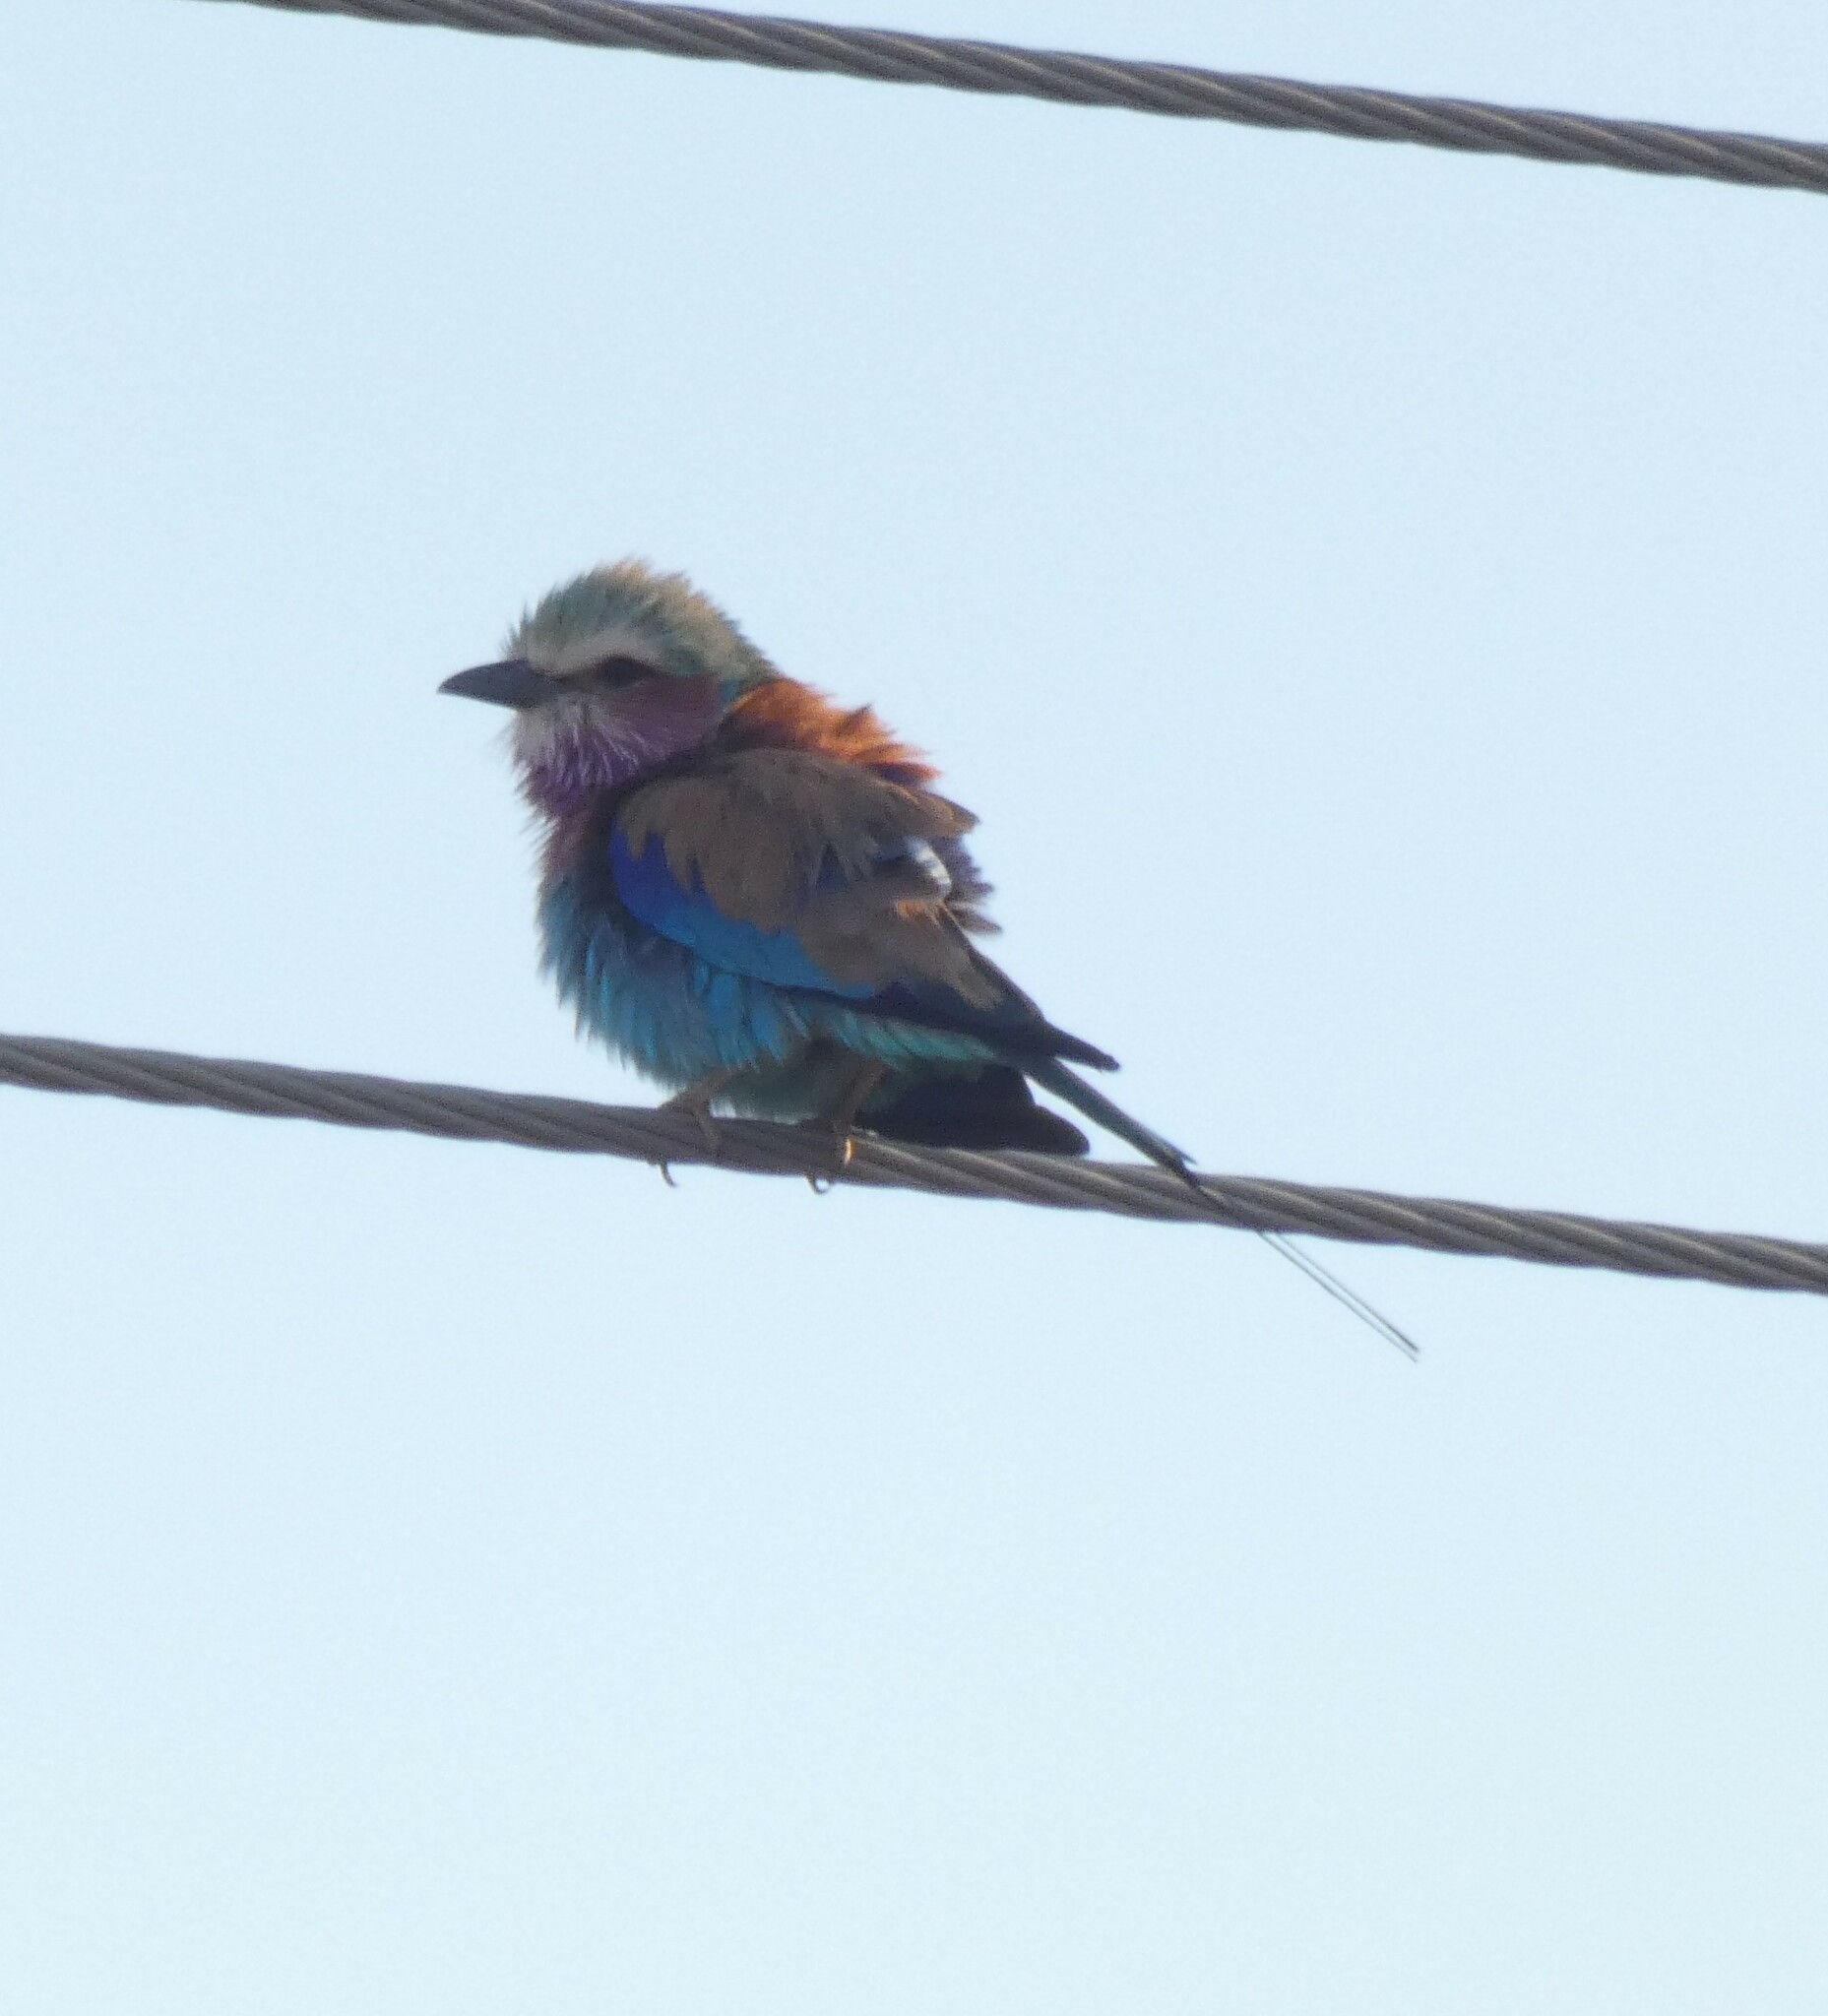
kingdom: Animalia
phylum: Chordata
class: Aves
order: Coraciiformes
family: Coraciidae
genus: Coracias
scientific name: Coracias caudatus
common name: Lilac-breasted roller
